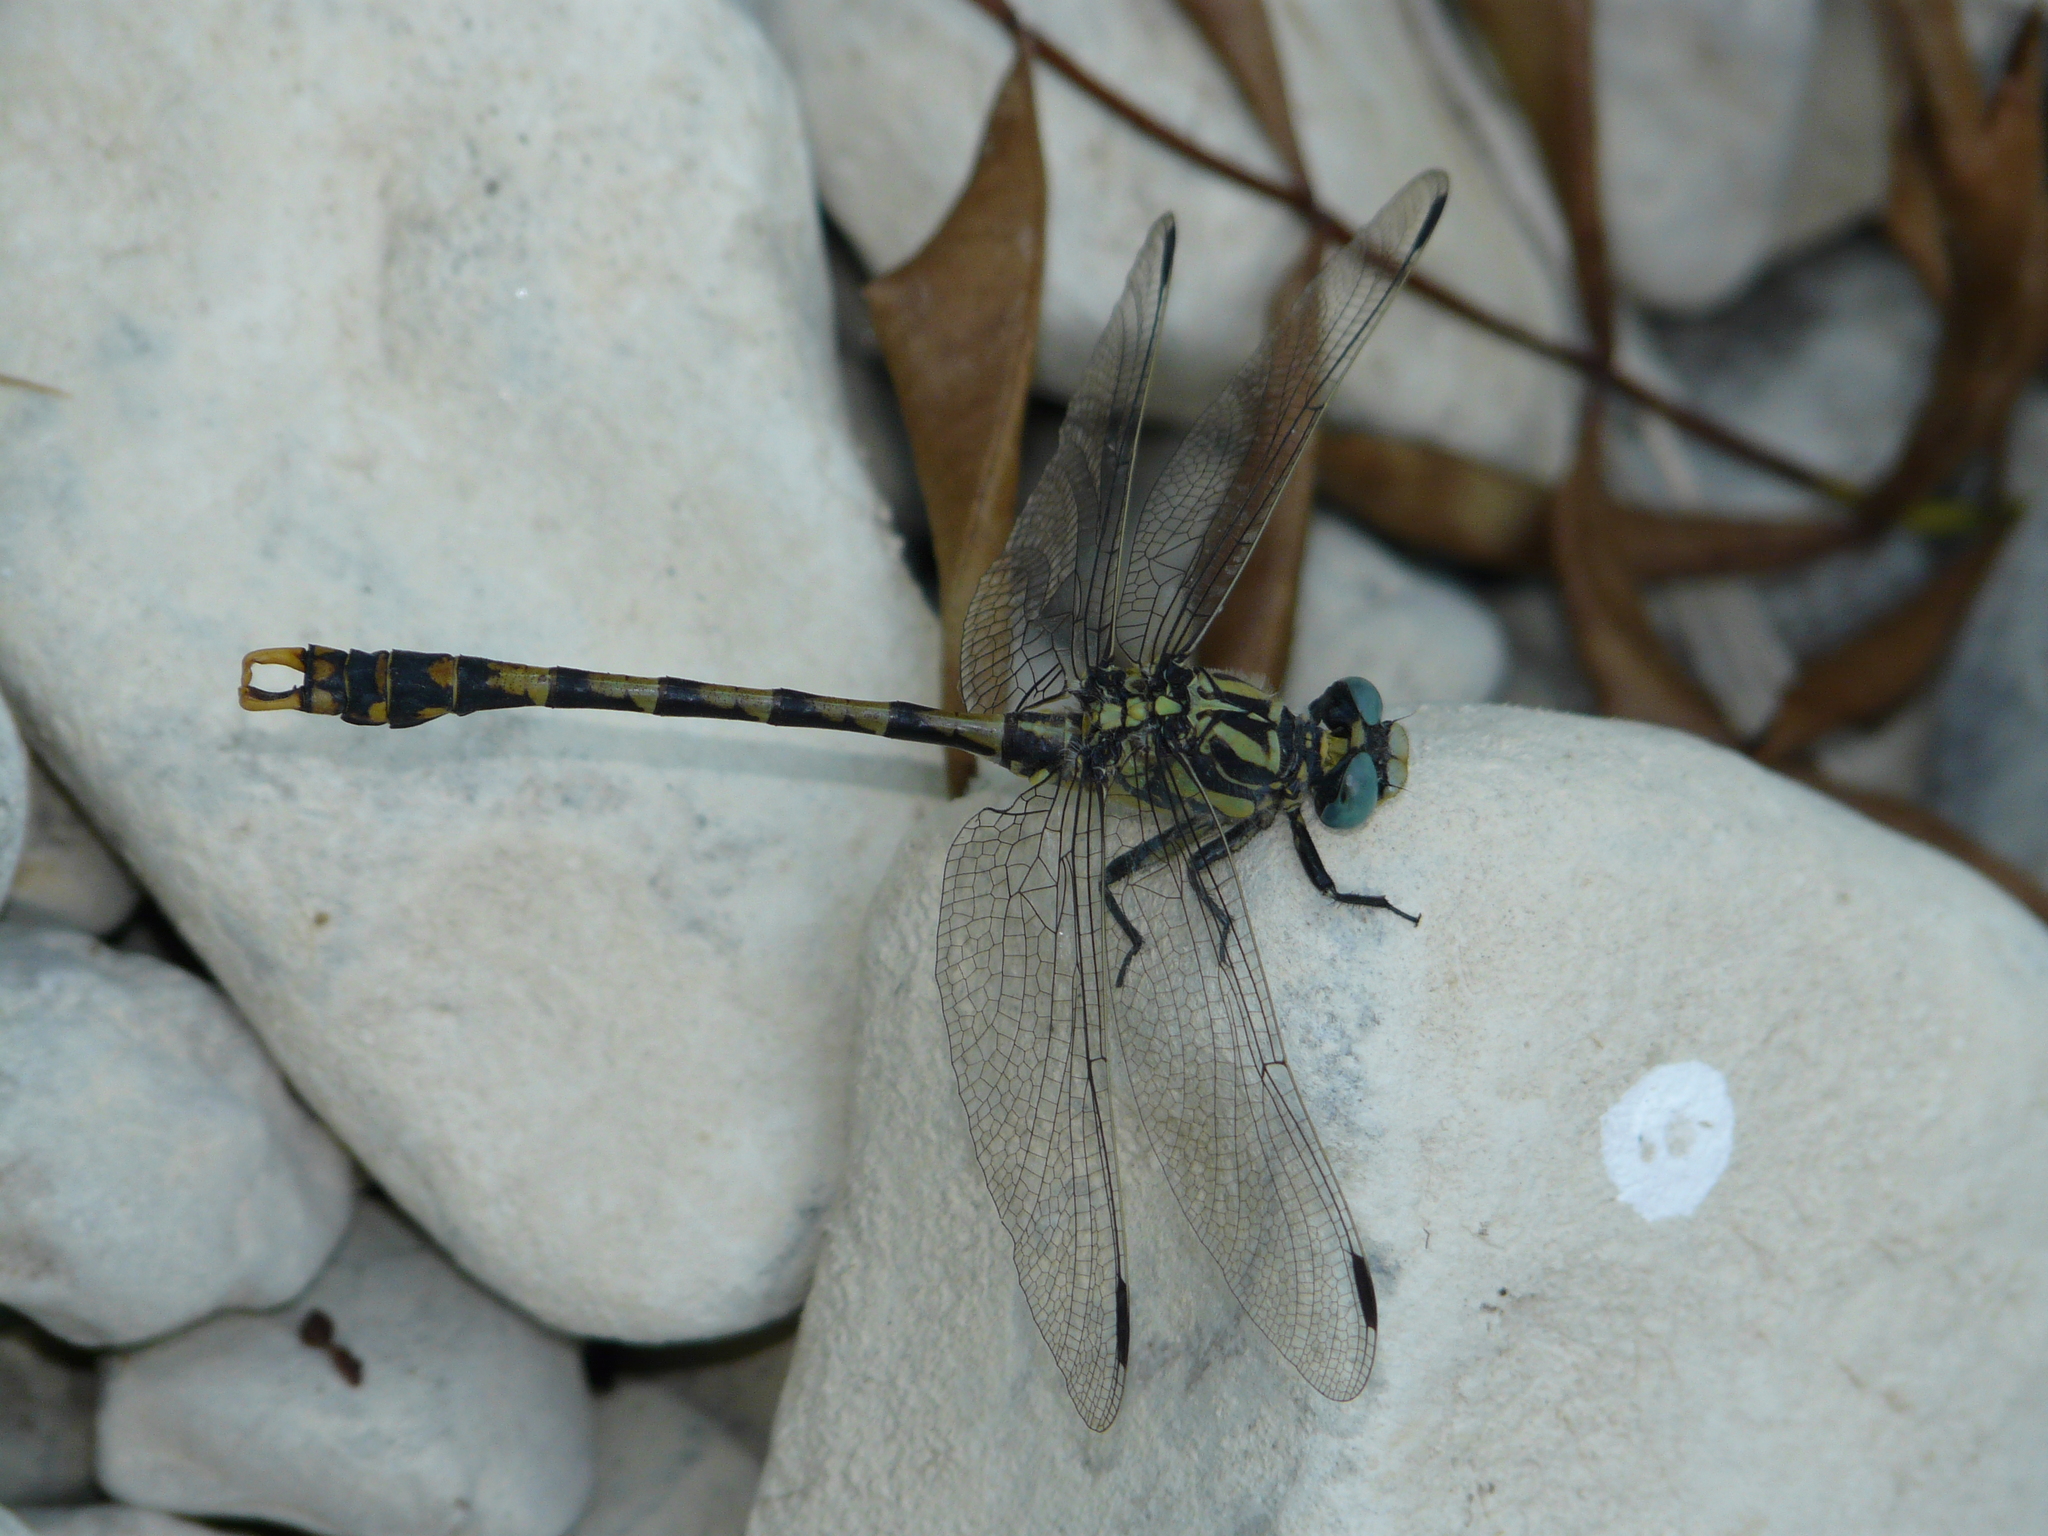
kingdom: Animalia
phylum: Arthropoda
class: Insecta
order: Odonata
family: Gomphidae
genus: Onychogomphus
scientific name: Onychogomphus uncatus
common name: Large pincertail
